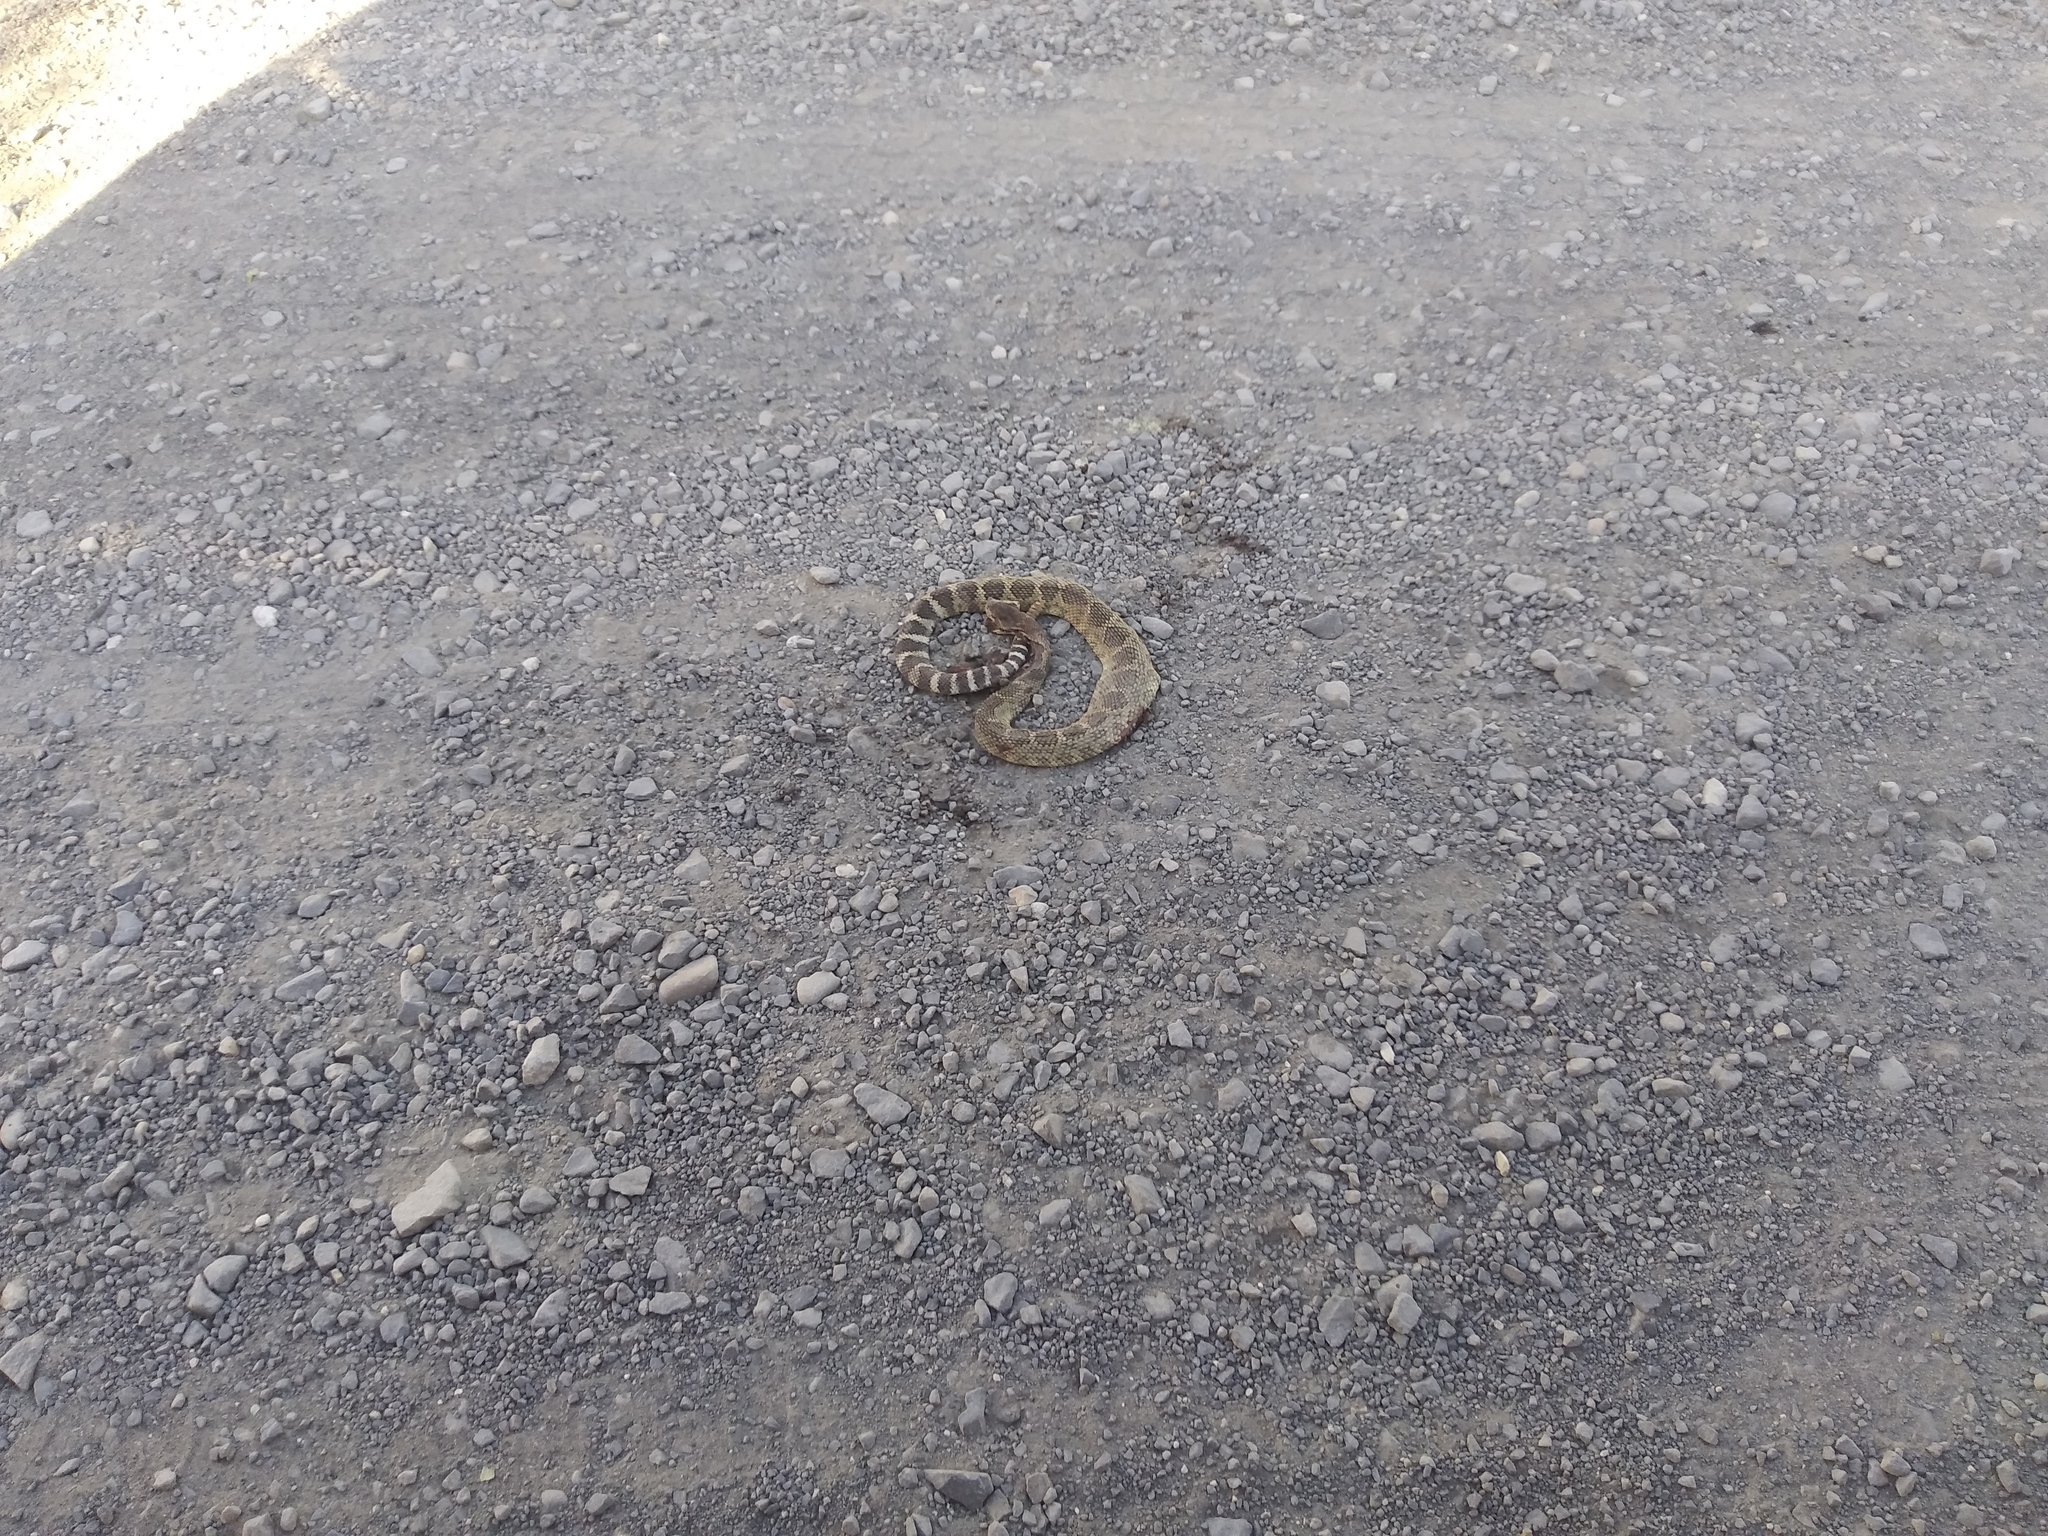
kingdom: Animalia
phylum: Chordata
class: Squamata
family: Viperidae
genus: Crotalus
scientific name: Crotalus oreganus
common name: Abyssus
